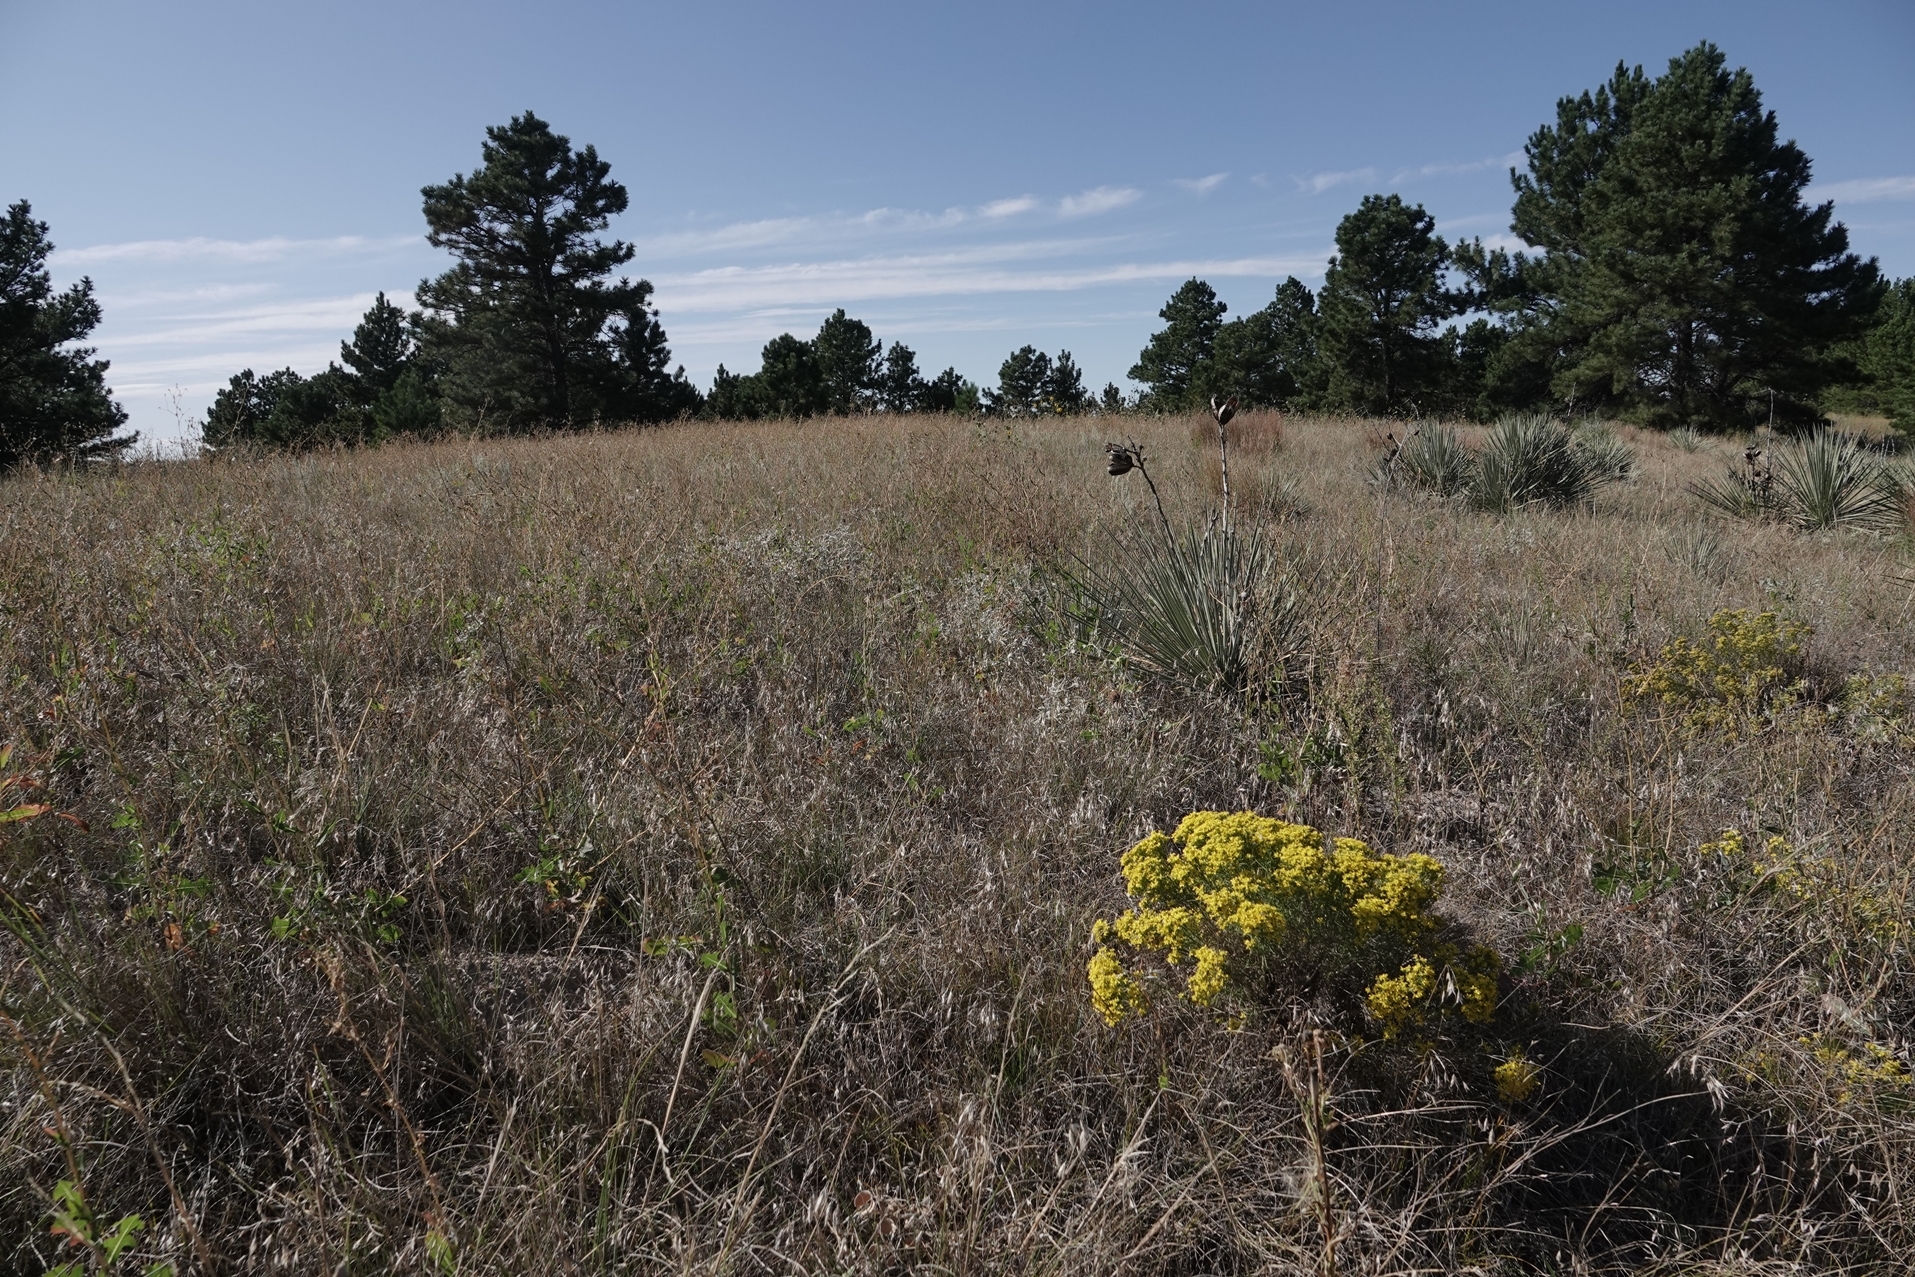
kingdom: Plantae
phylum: Tracheophyta
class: Magnoliopsida
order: Asterales
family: Asteraceae
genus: Gutierrezia
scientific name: Gutierrezia sarothrae
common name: Broom snakeweed
